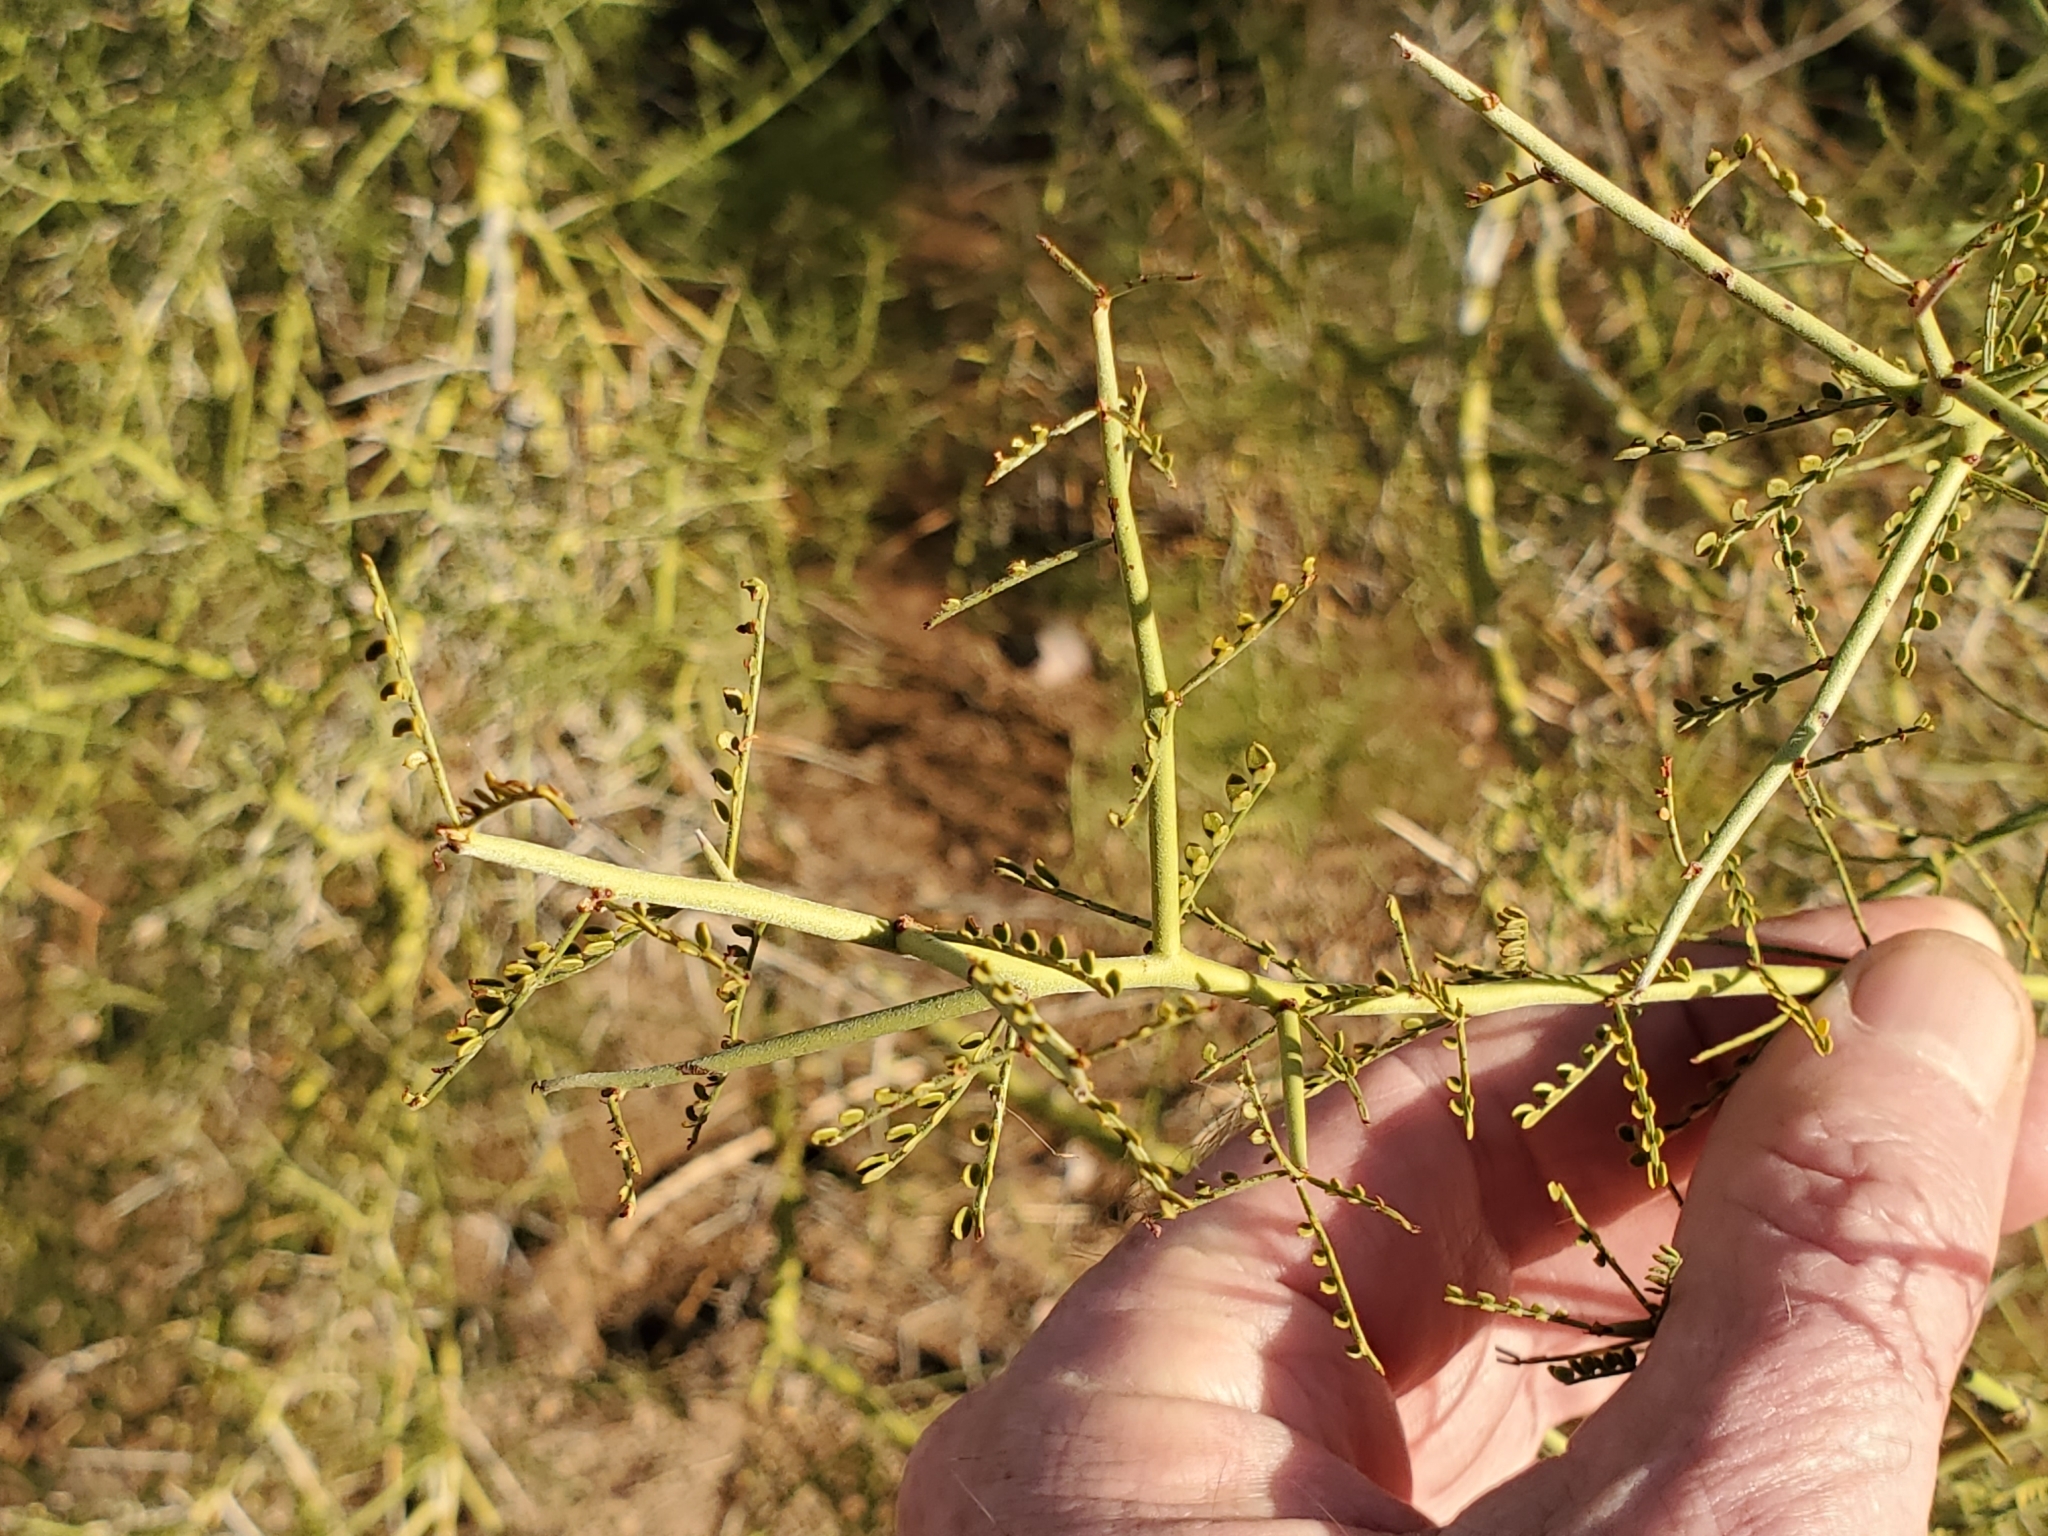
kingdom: Plantae
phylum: Tracheophyta
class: Magnoliopsida
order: Fabales
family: Fabaceae
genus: Parkinsonia
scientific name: Parkinsonia microphylla
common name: Yellow paloverde
